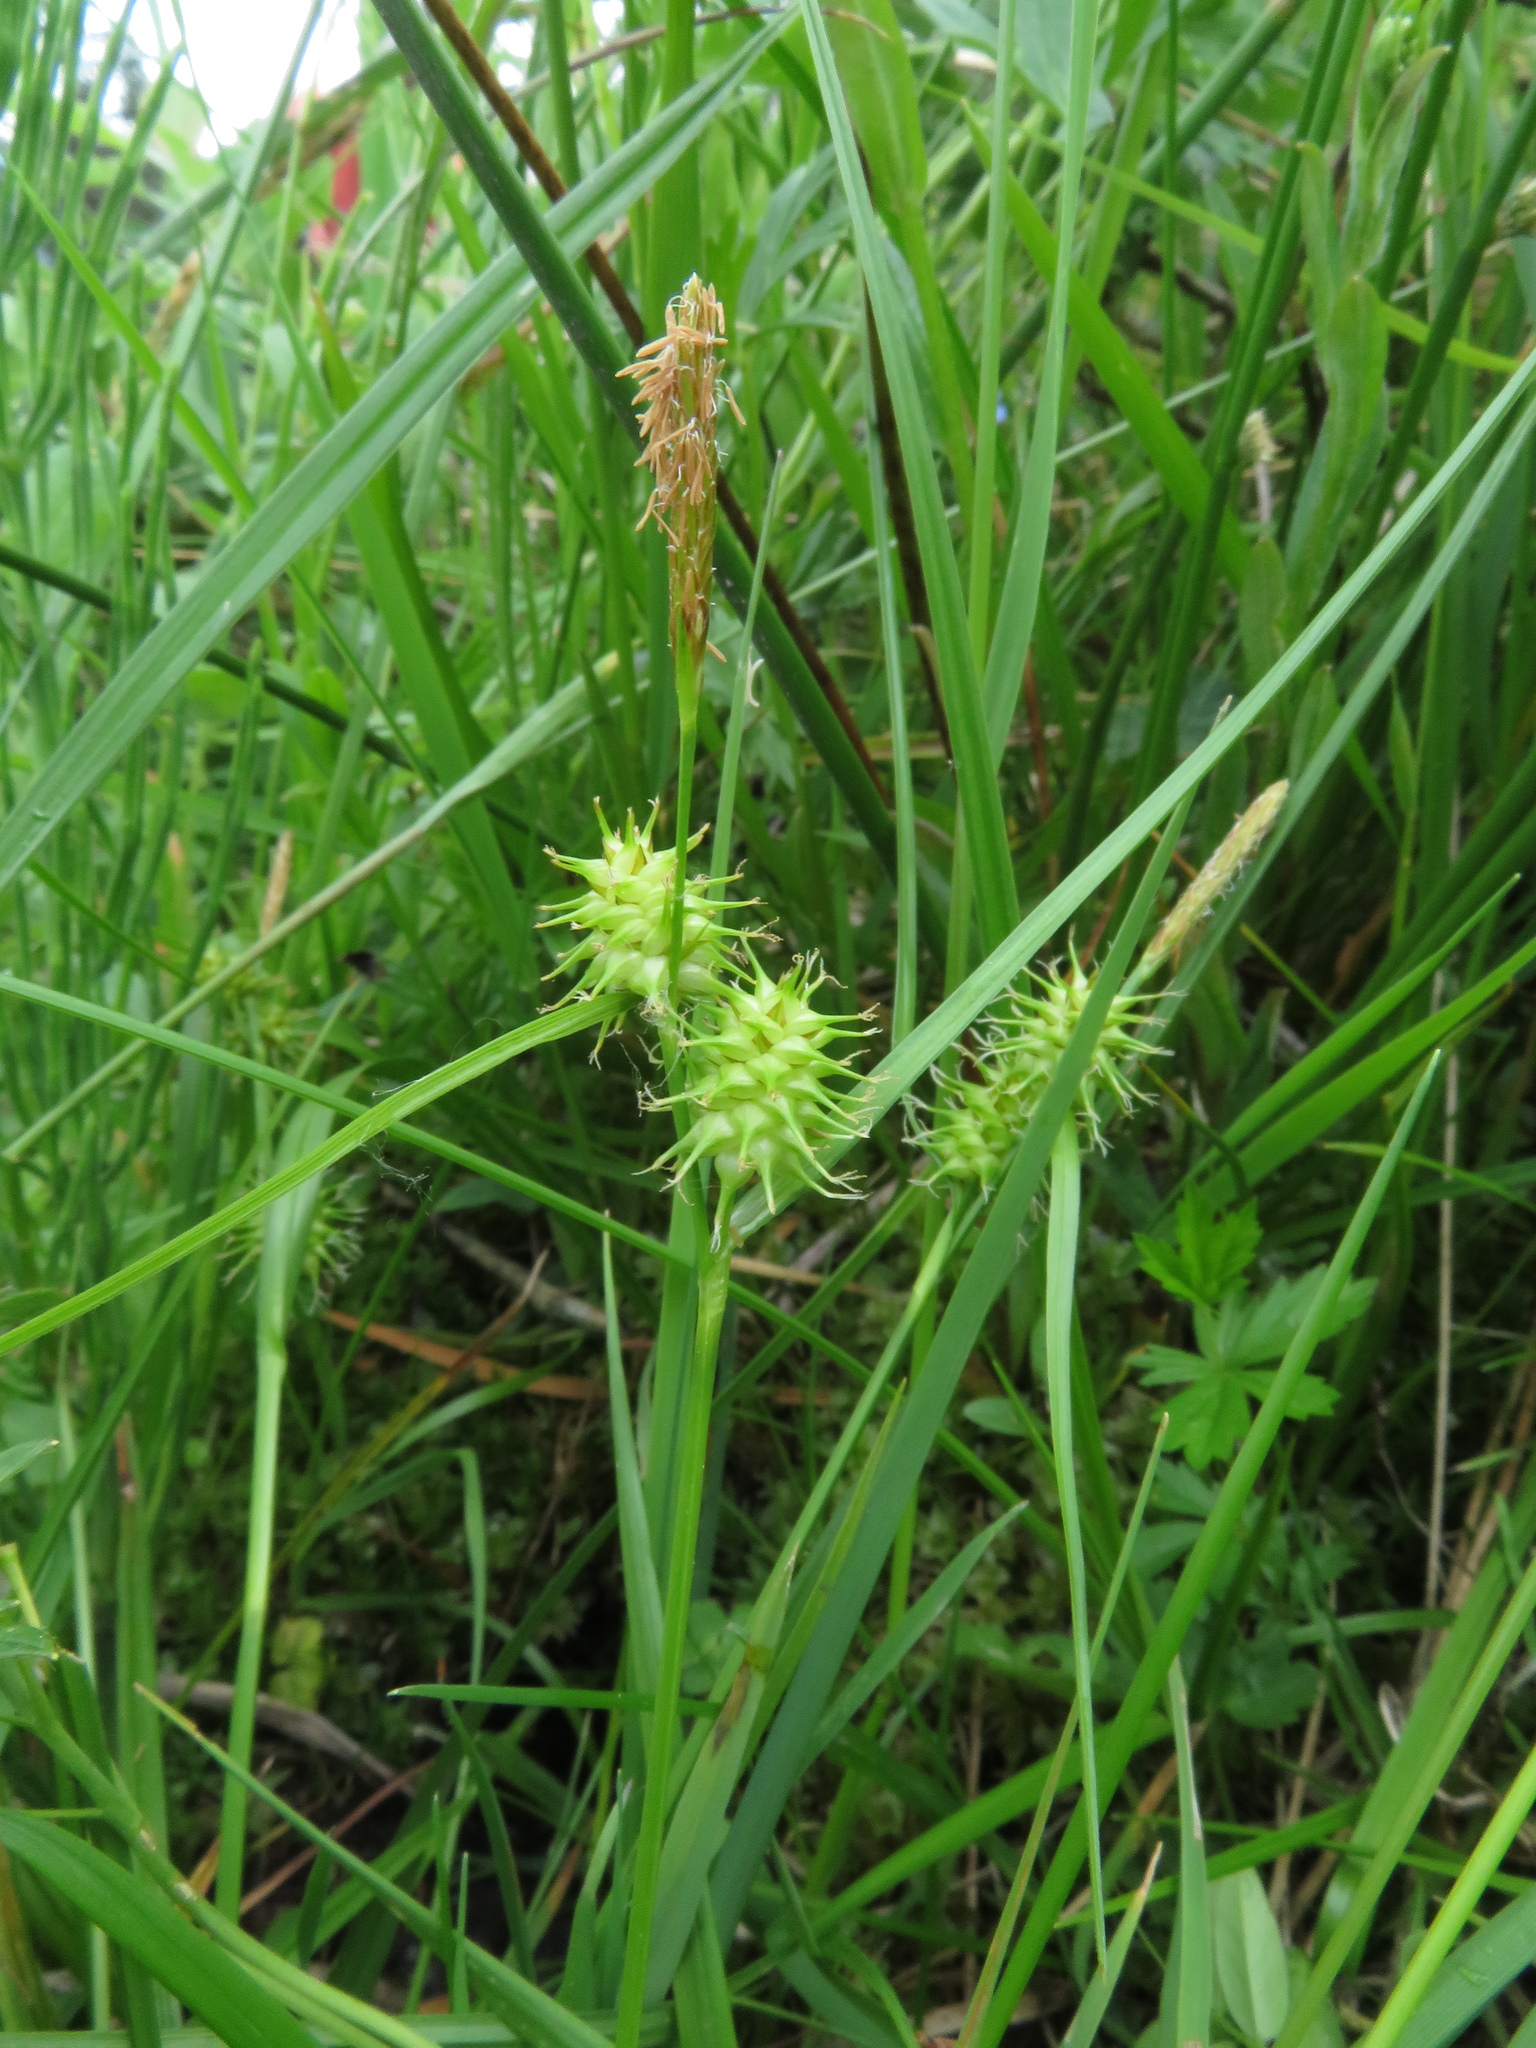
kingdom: Plantae
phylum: Tracheophyta
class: Liliopsida
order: Poales
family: Cyperaceae
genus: Carex
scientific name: Carex flava
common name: Large yellow-sedge
